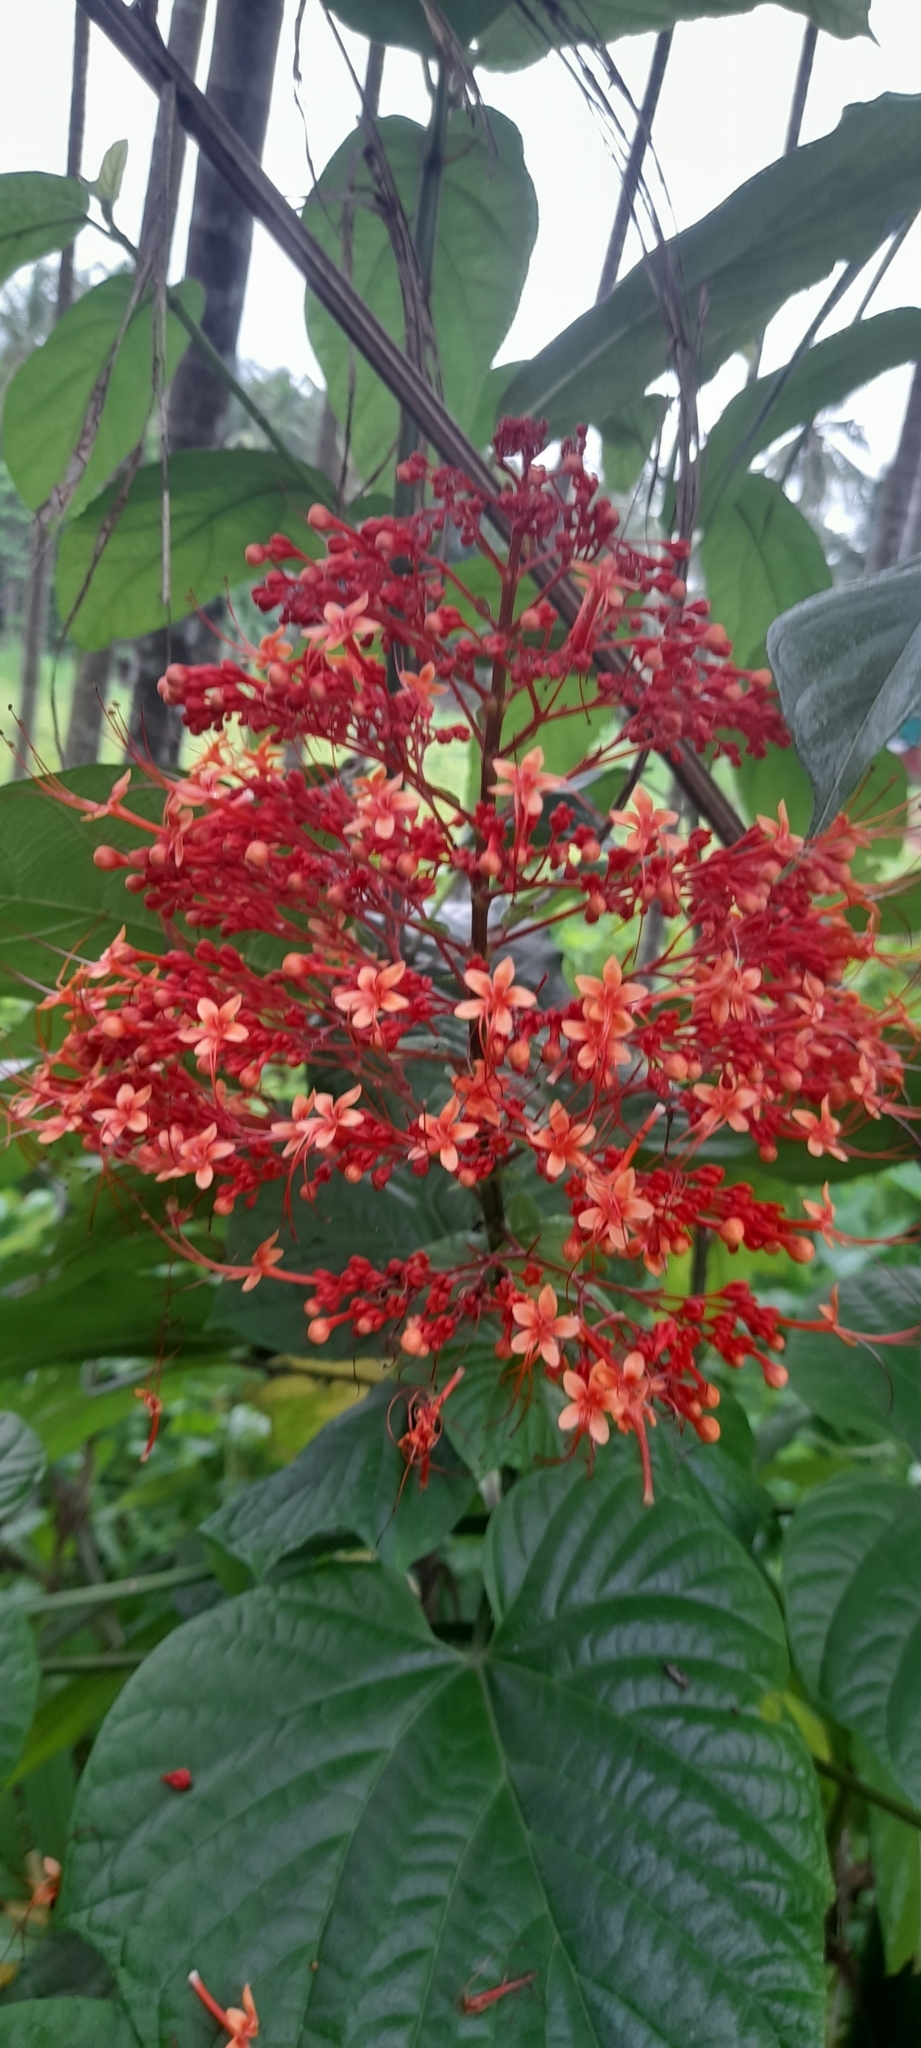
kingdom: Plantae
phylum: Tracheophyta
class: Magnoliopsida
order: Lamiales
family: Lamiaceae
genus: Clerodendrum
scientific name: Clerodendrum paniculatum
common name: Pagoda-flower
